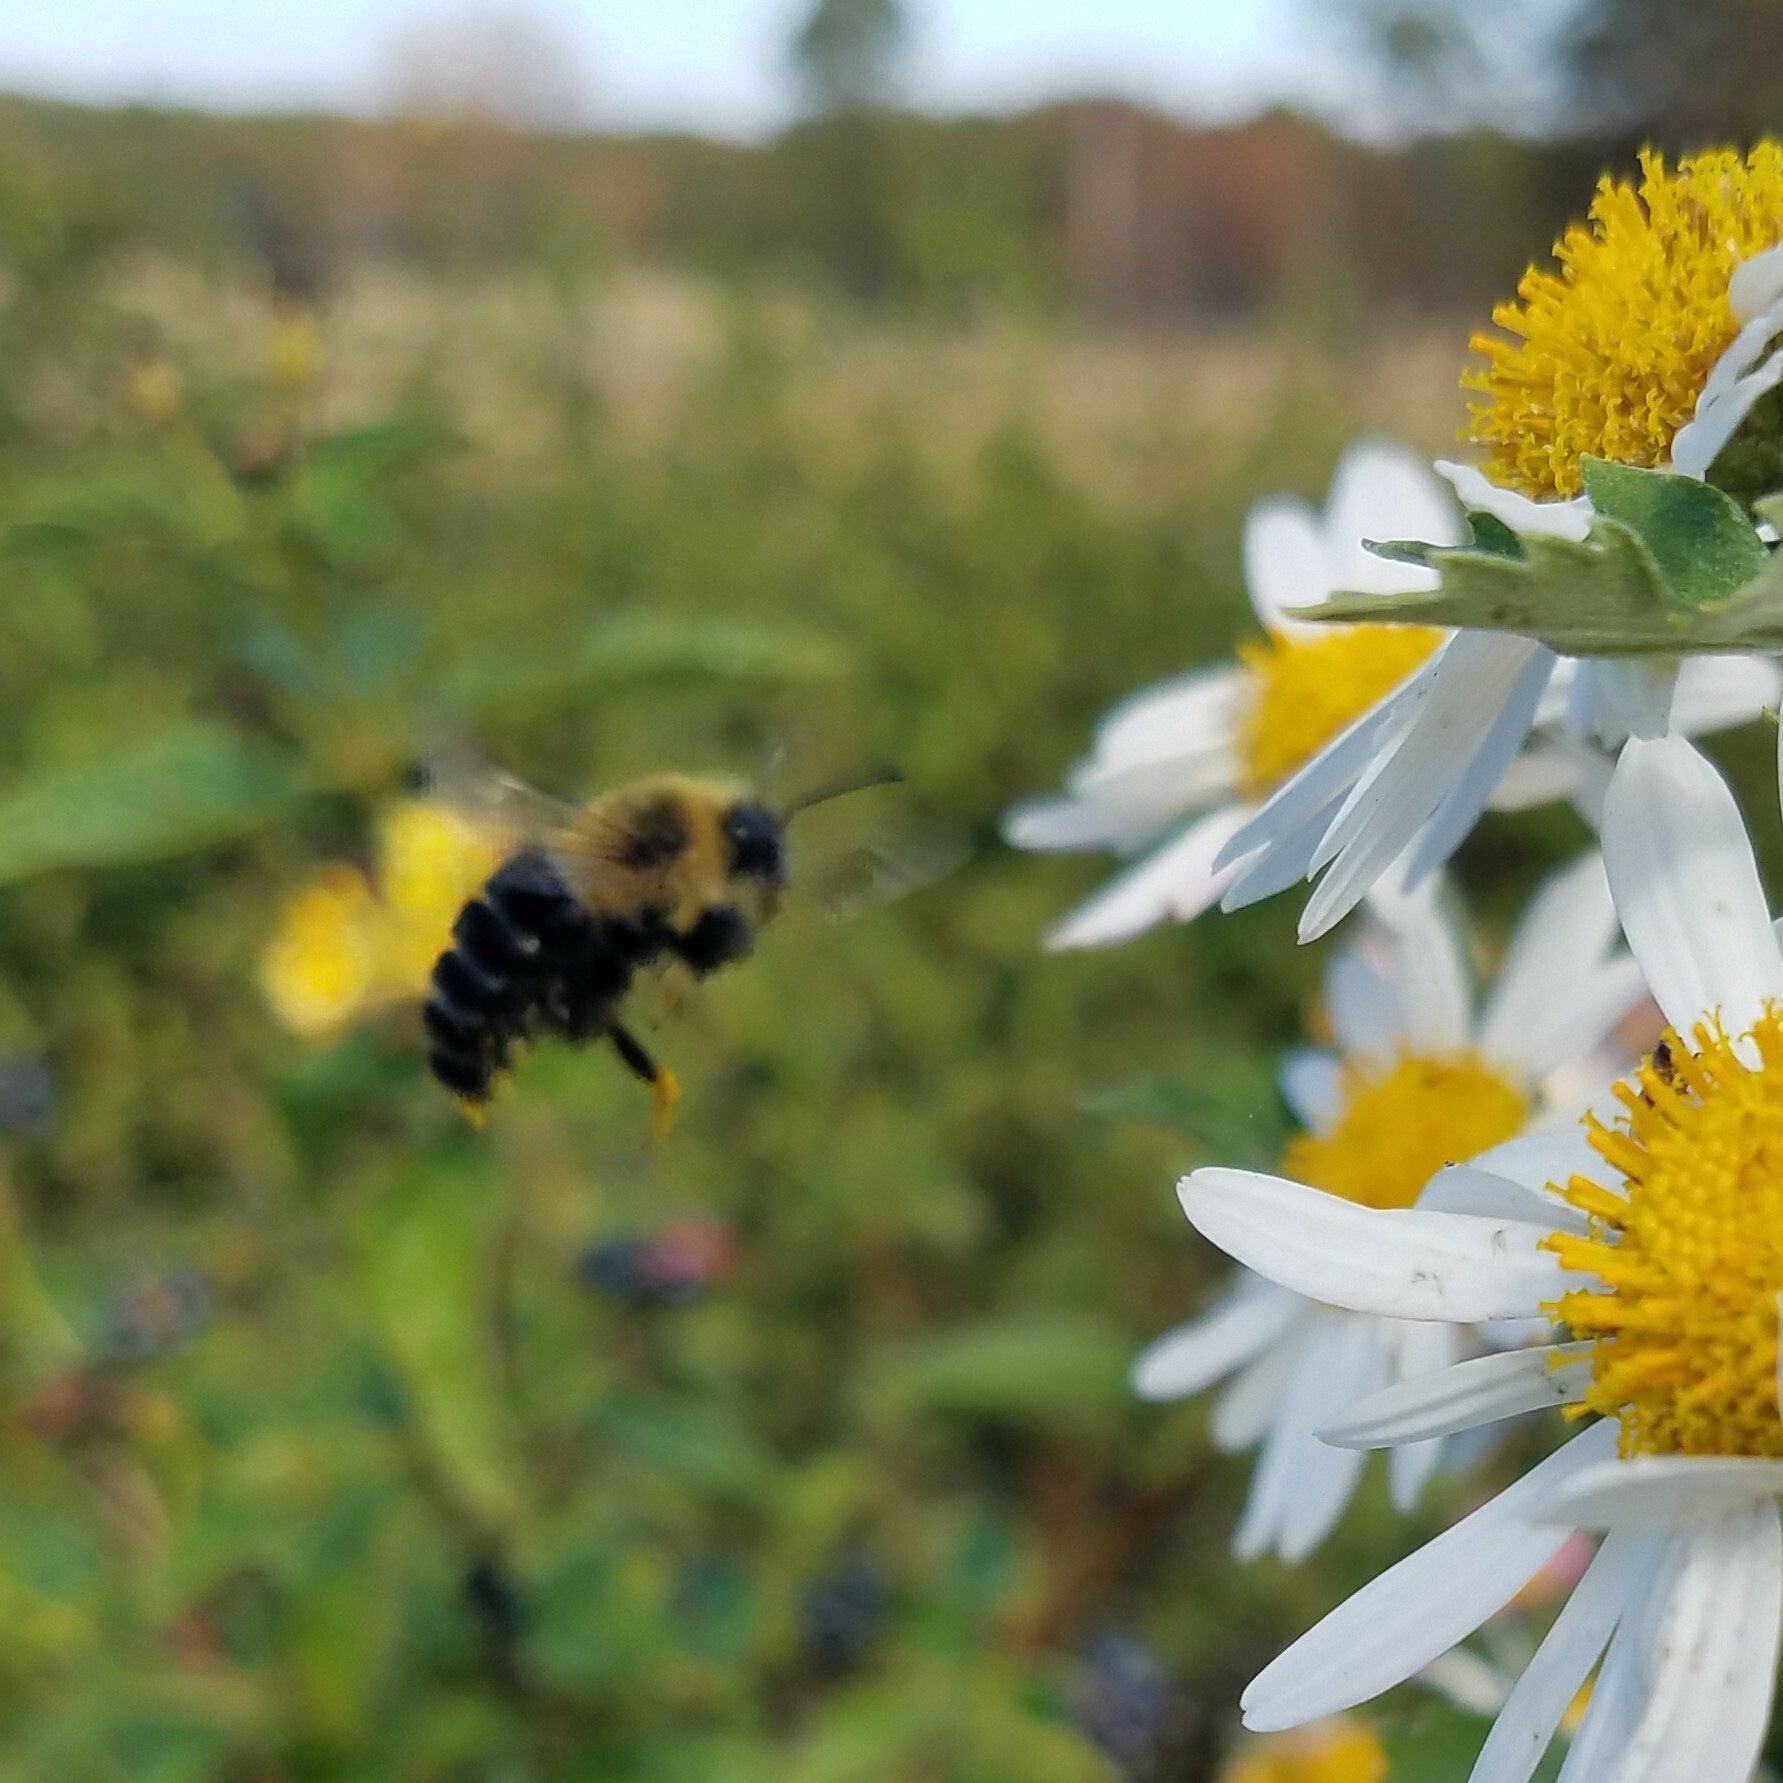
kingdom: Animalia
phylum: Arthropoda
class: Insecta
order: Hymenoptera
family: Apidae
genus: Bombus
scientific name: Bombus impatiens
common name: Common eastern bumble bee
